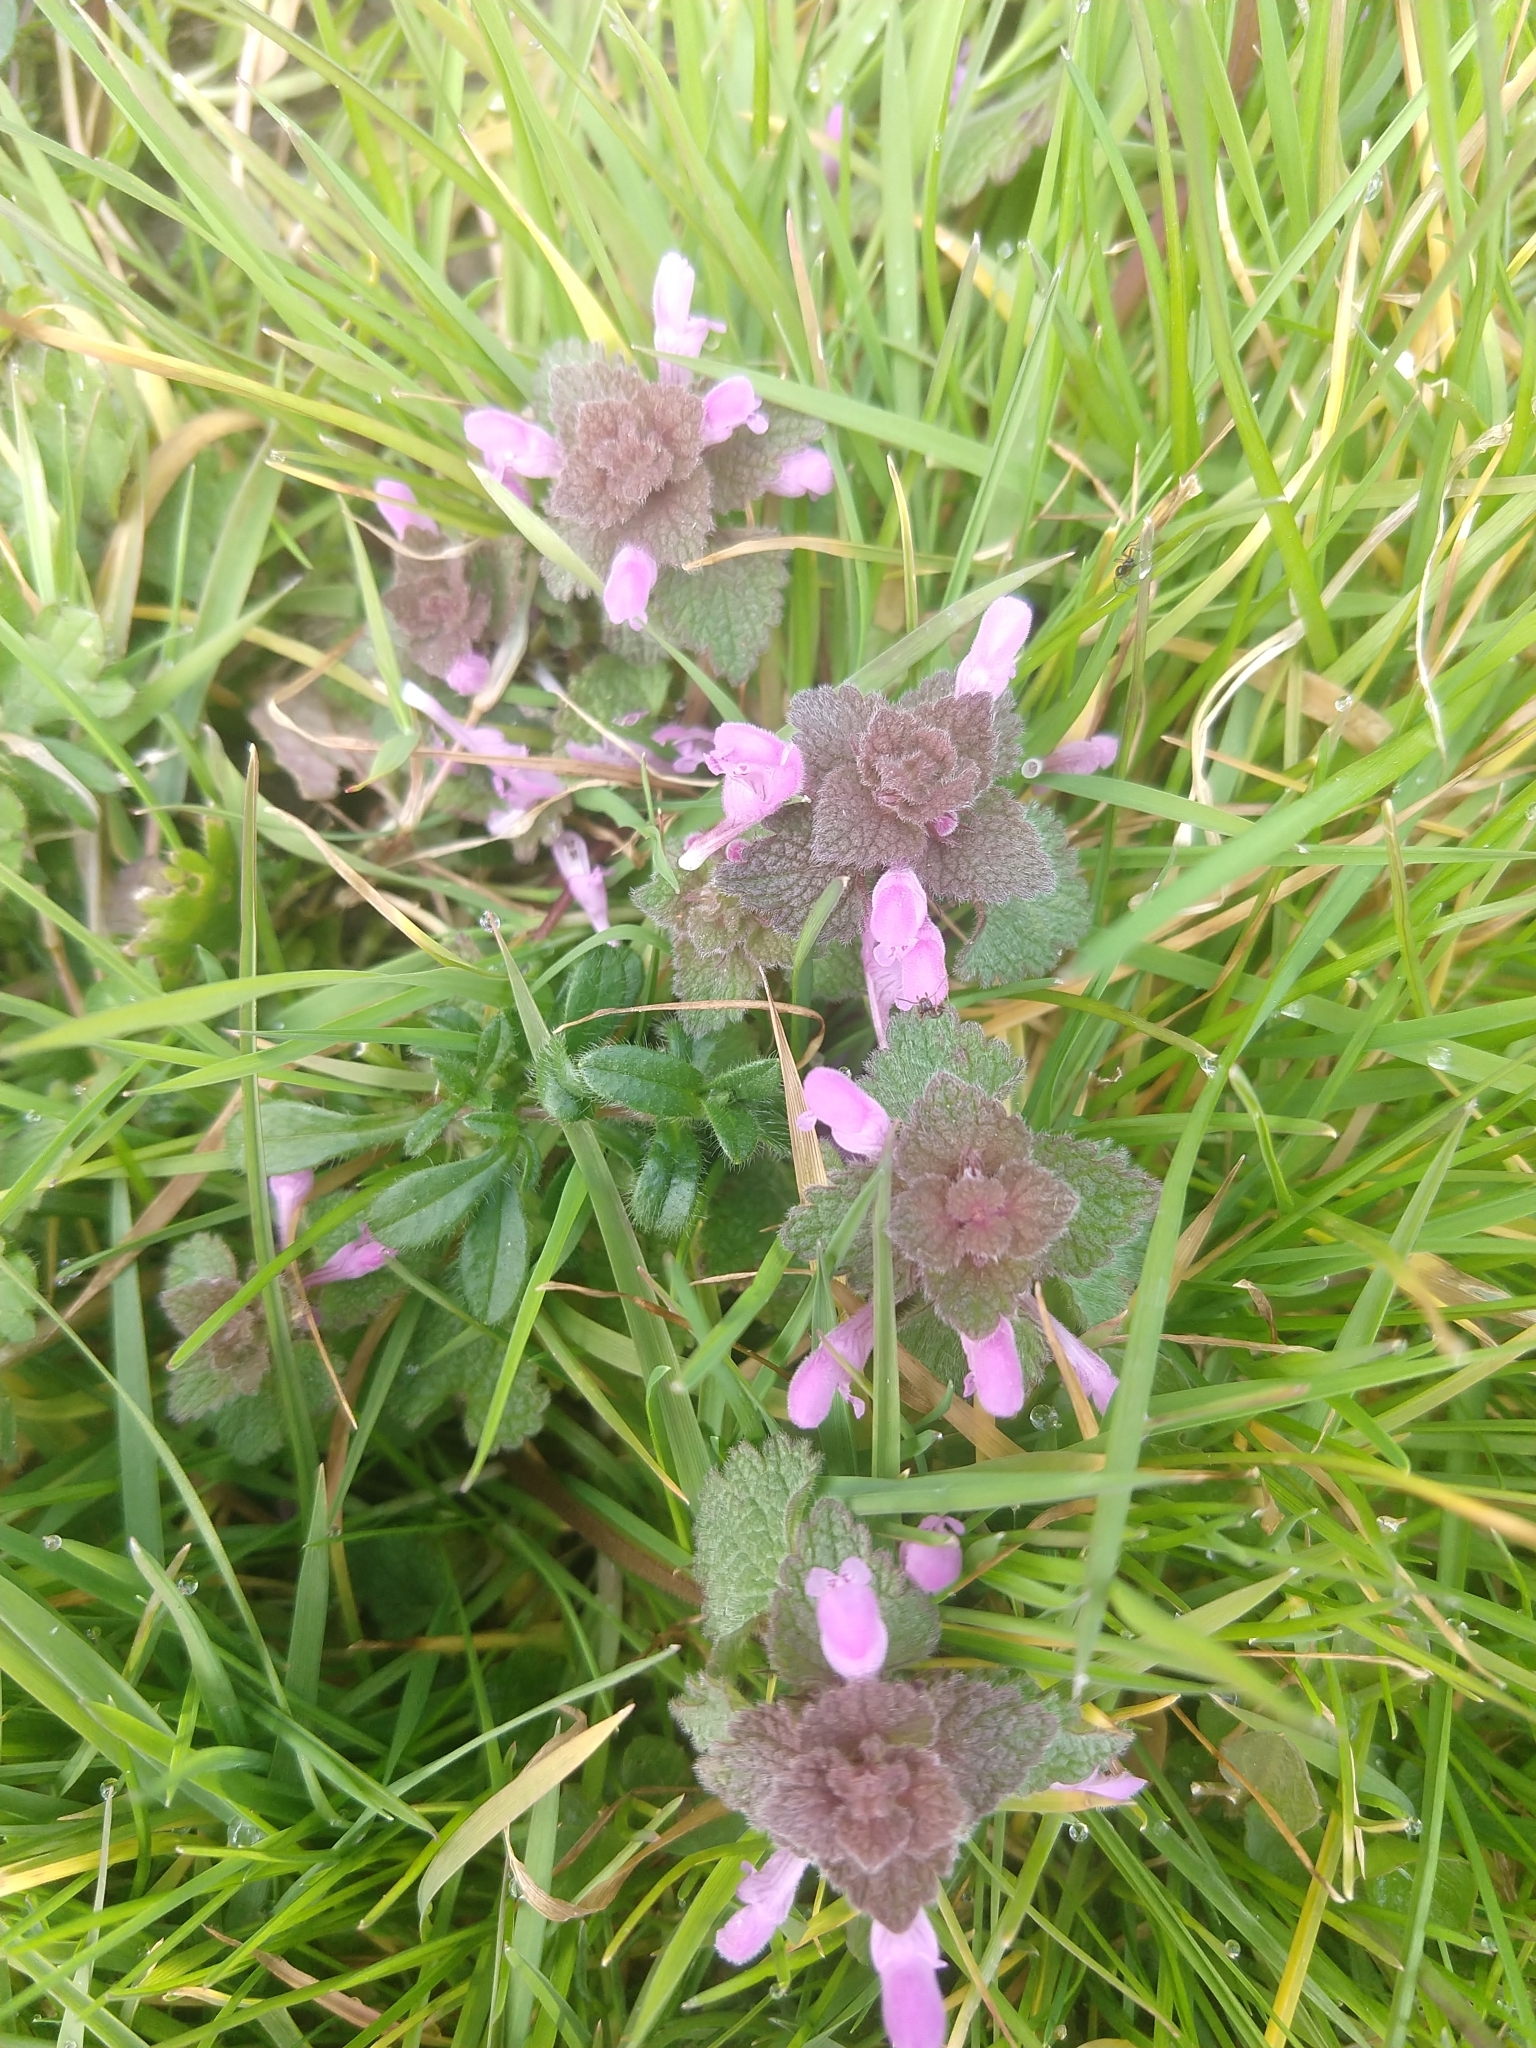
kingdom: Plantae
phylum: Tracheophyta
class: Magnoliopsida
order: Lamiales
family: Lamiaceae
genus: Lamium
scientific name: Lamium purpureum
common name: Red dead-nettle
